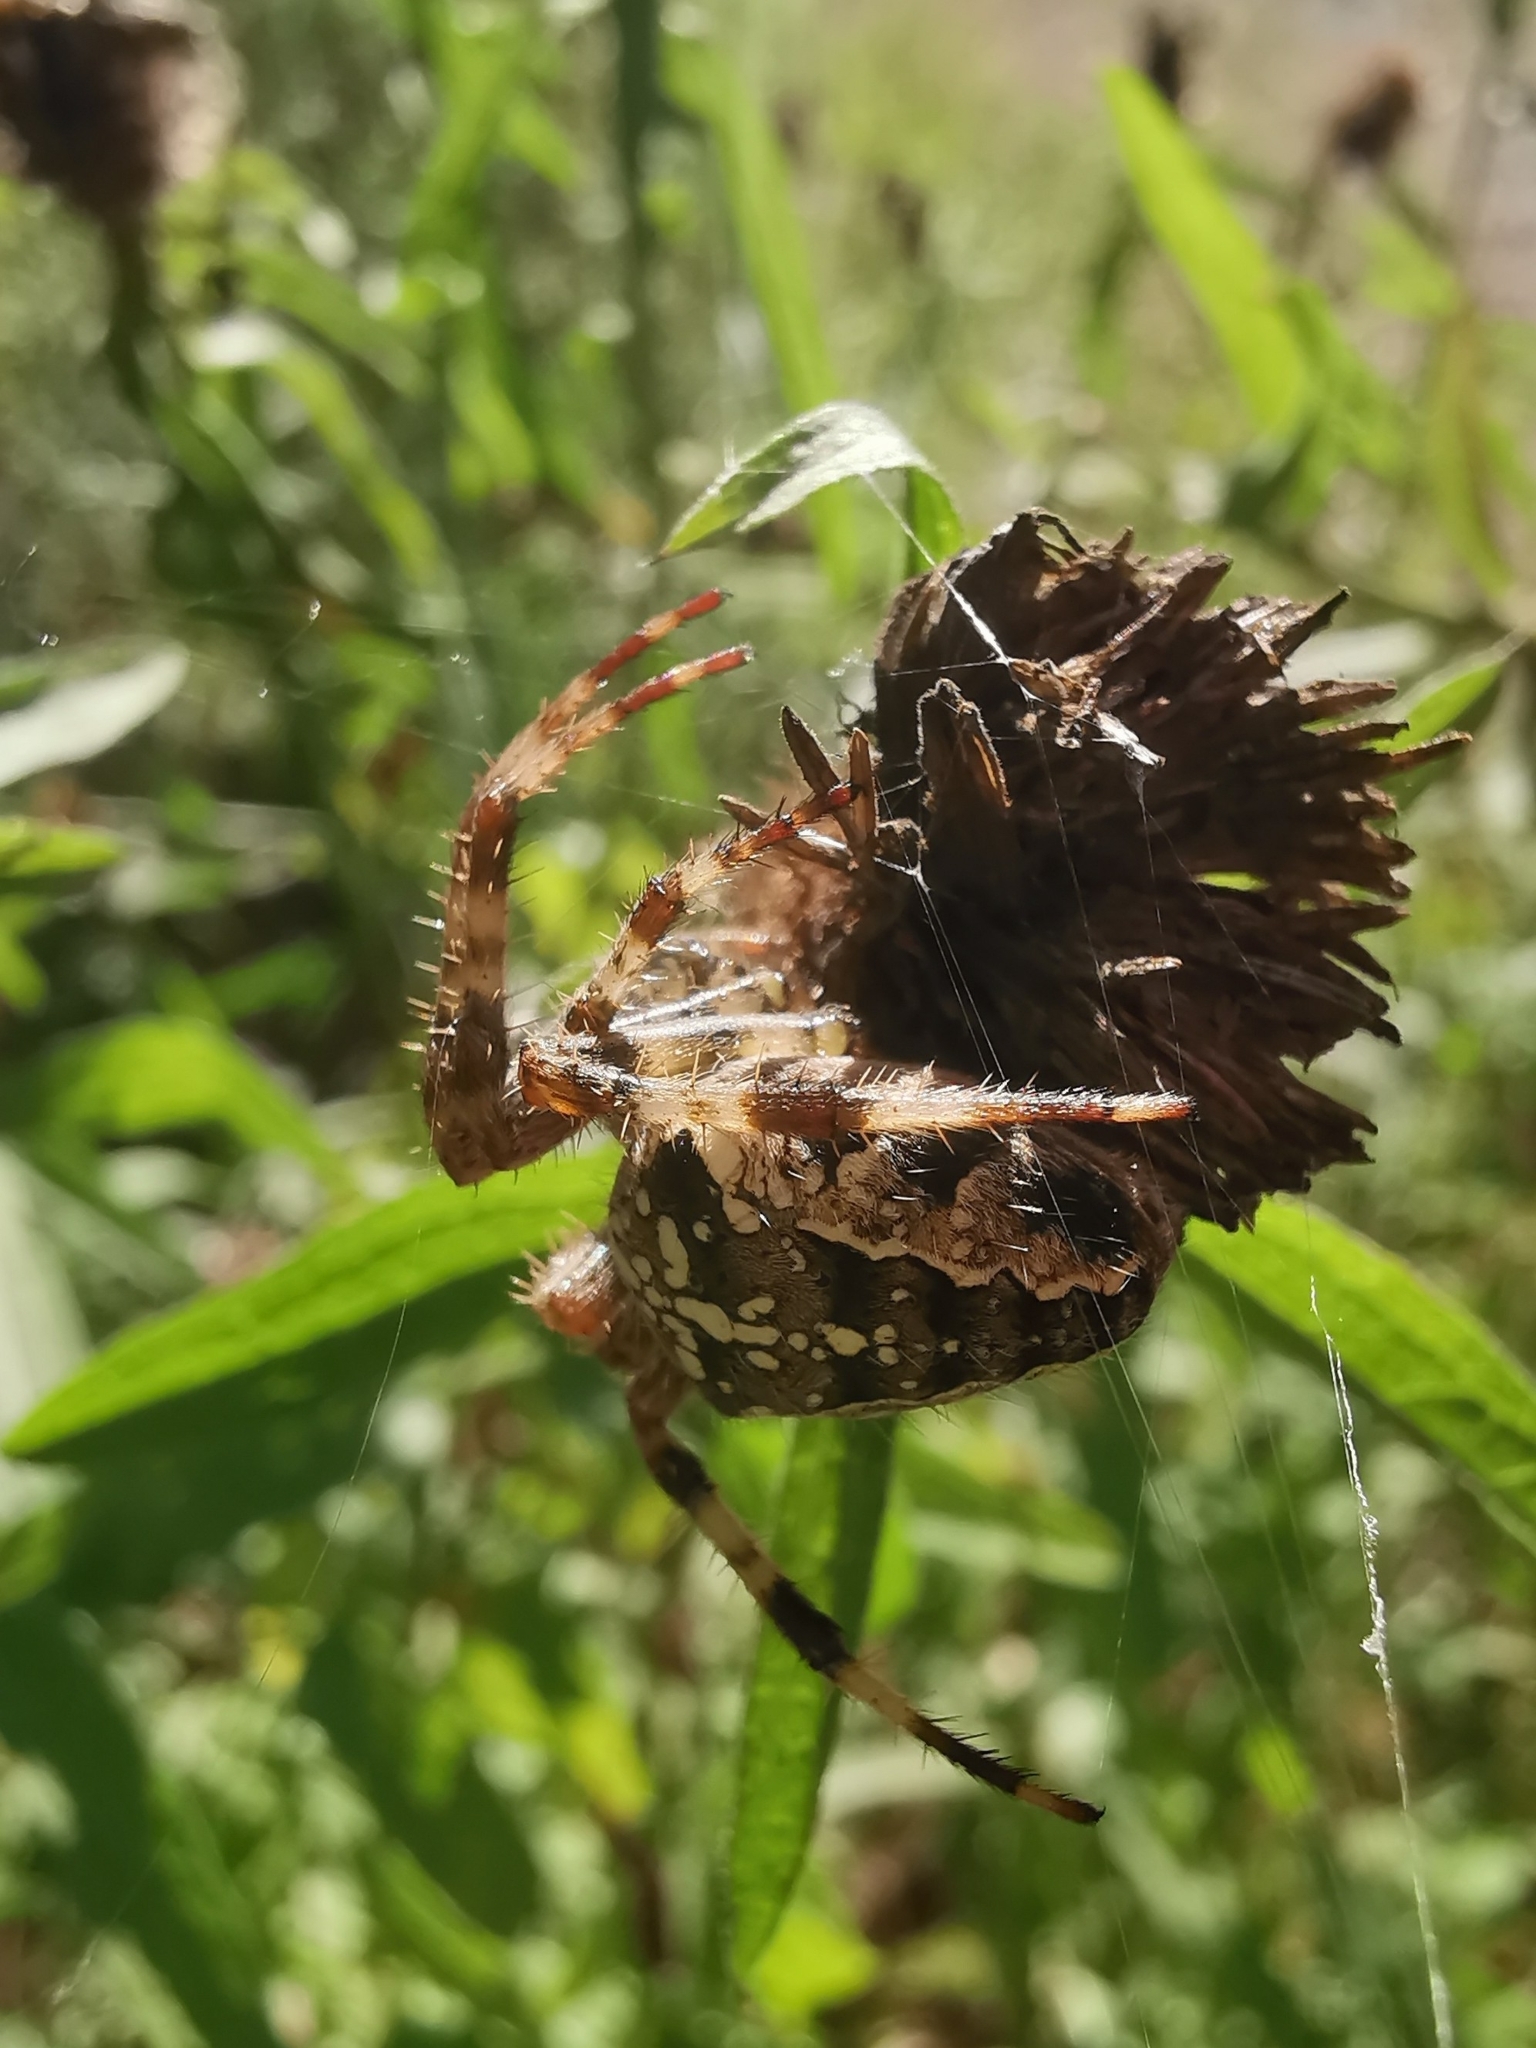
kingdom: Animalia
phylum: Arthropoda
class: Arachnida
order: Araneae
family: Araneidae
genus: Araneus
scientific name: Araneus diadematus
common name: Cross orbweaver
